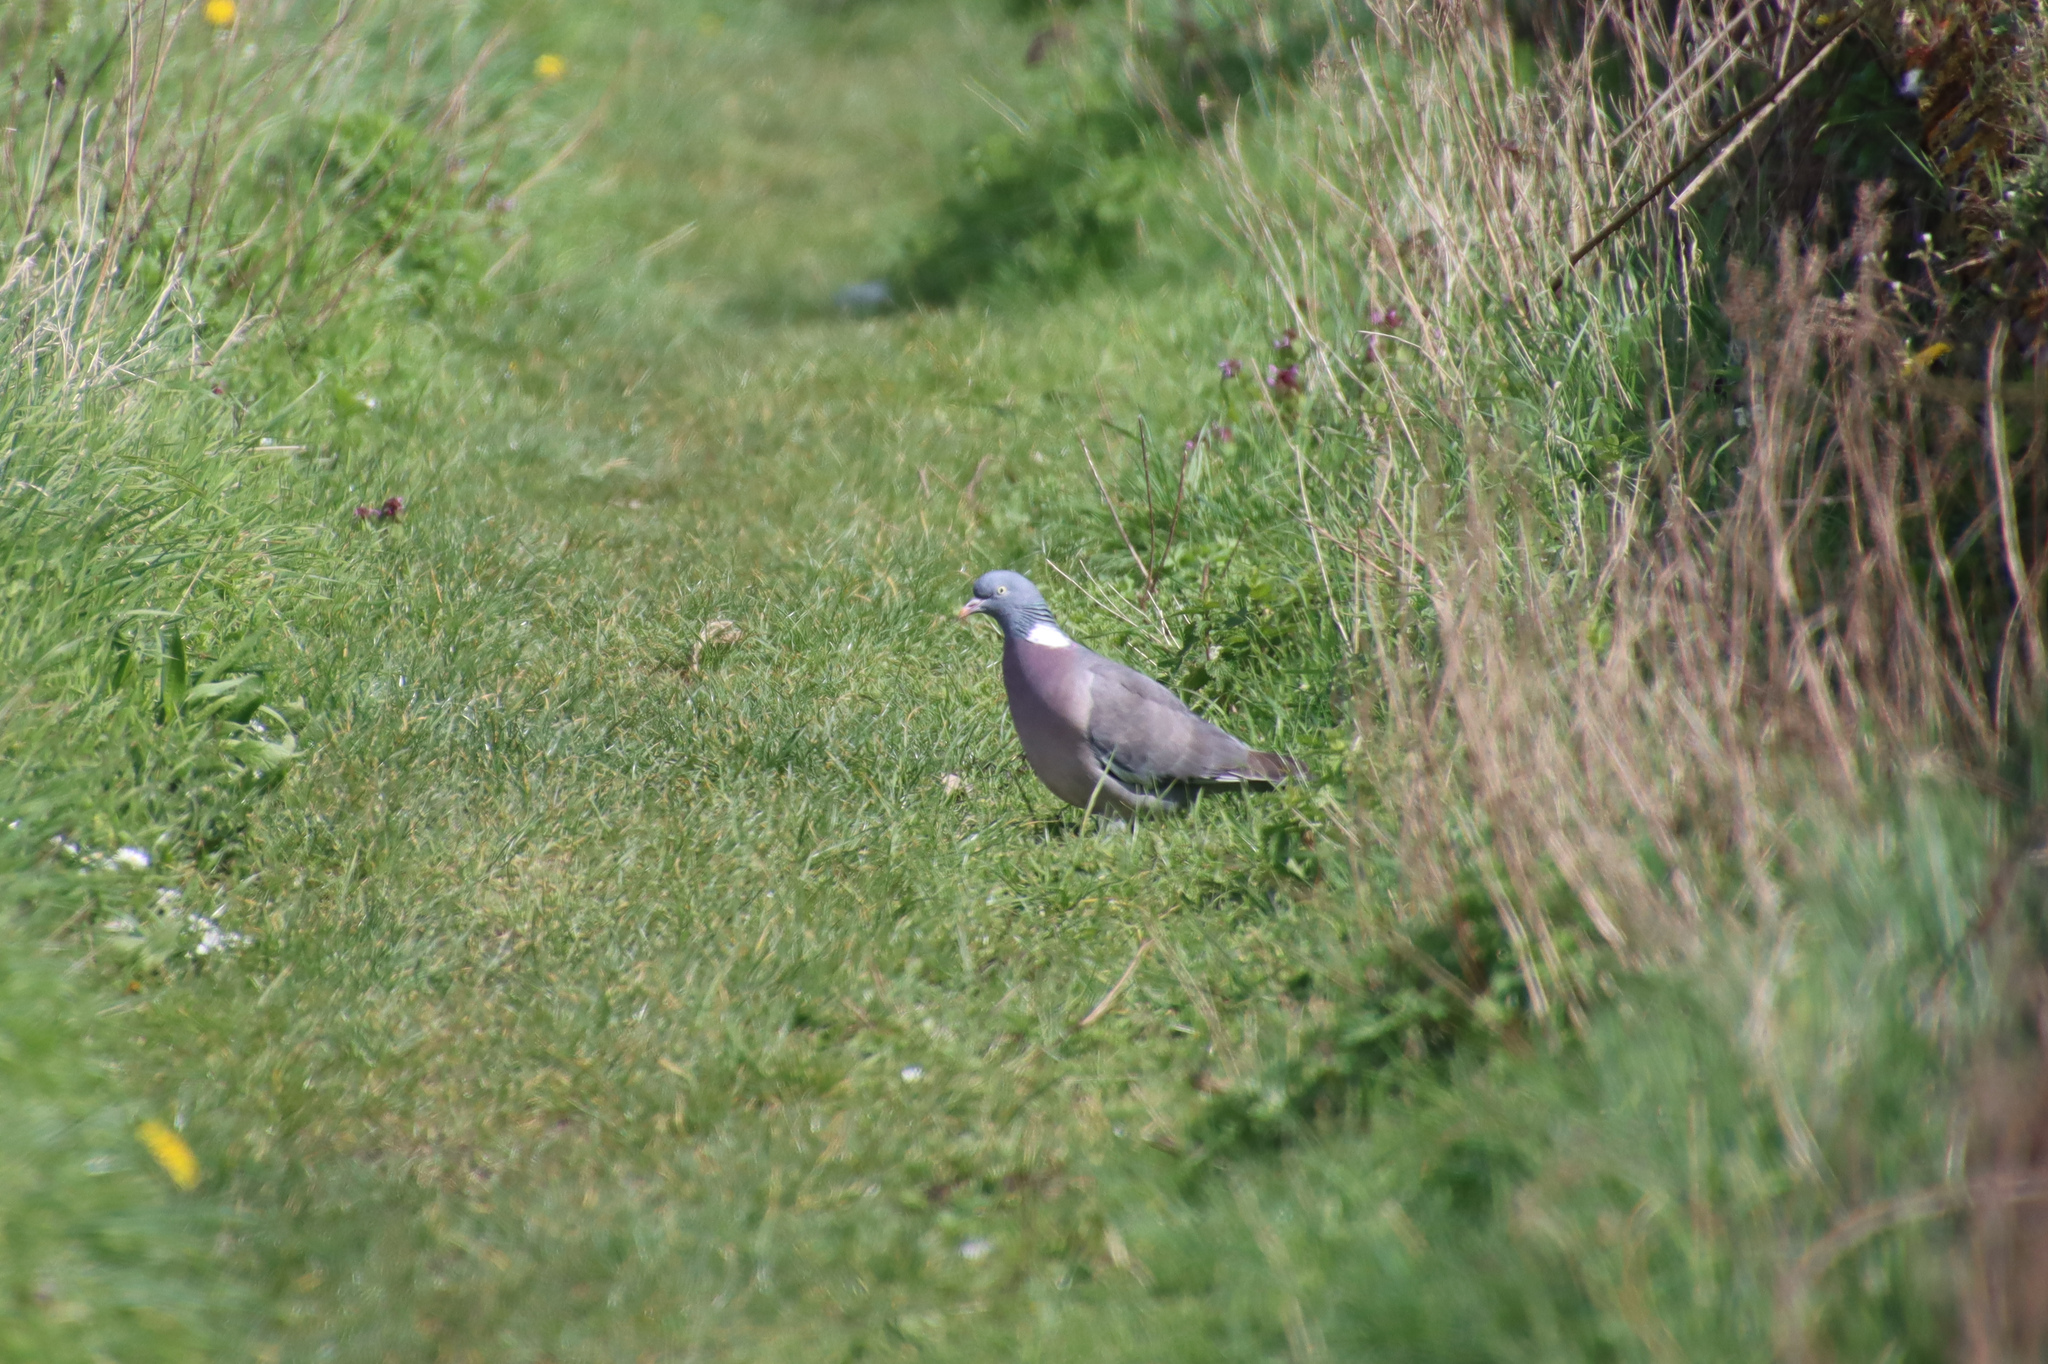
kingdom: Animalia
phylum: Chordata
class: Aves
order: Columbiformes
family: Columbidae
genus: Columba
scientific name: Columba palumbus
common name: Common wood pigeon
